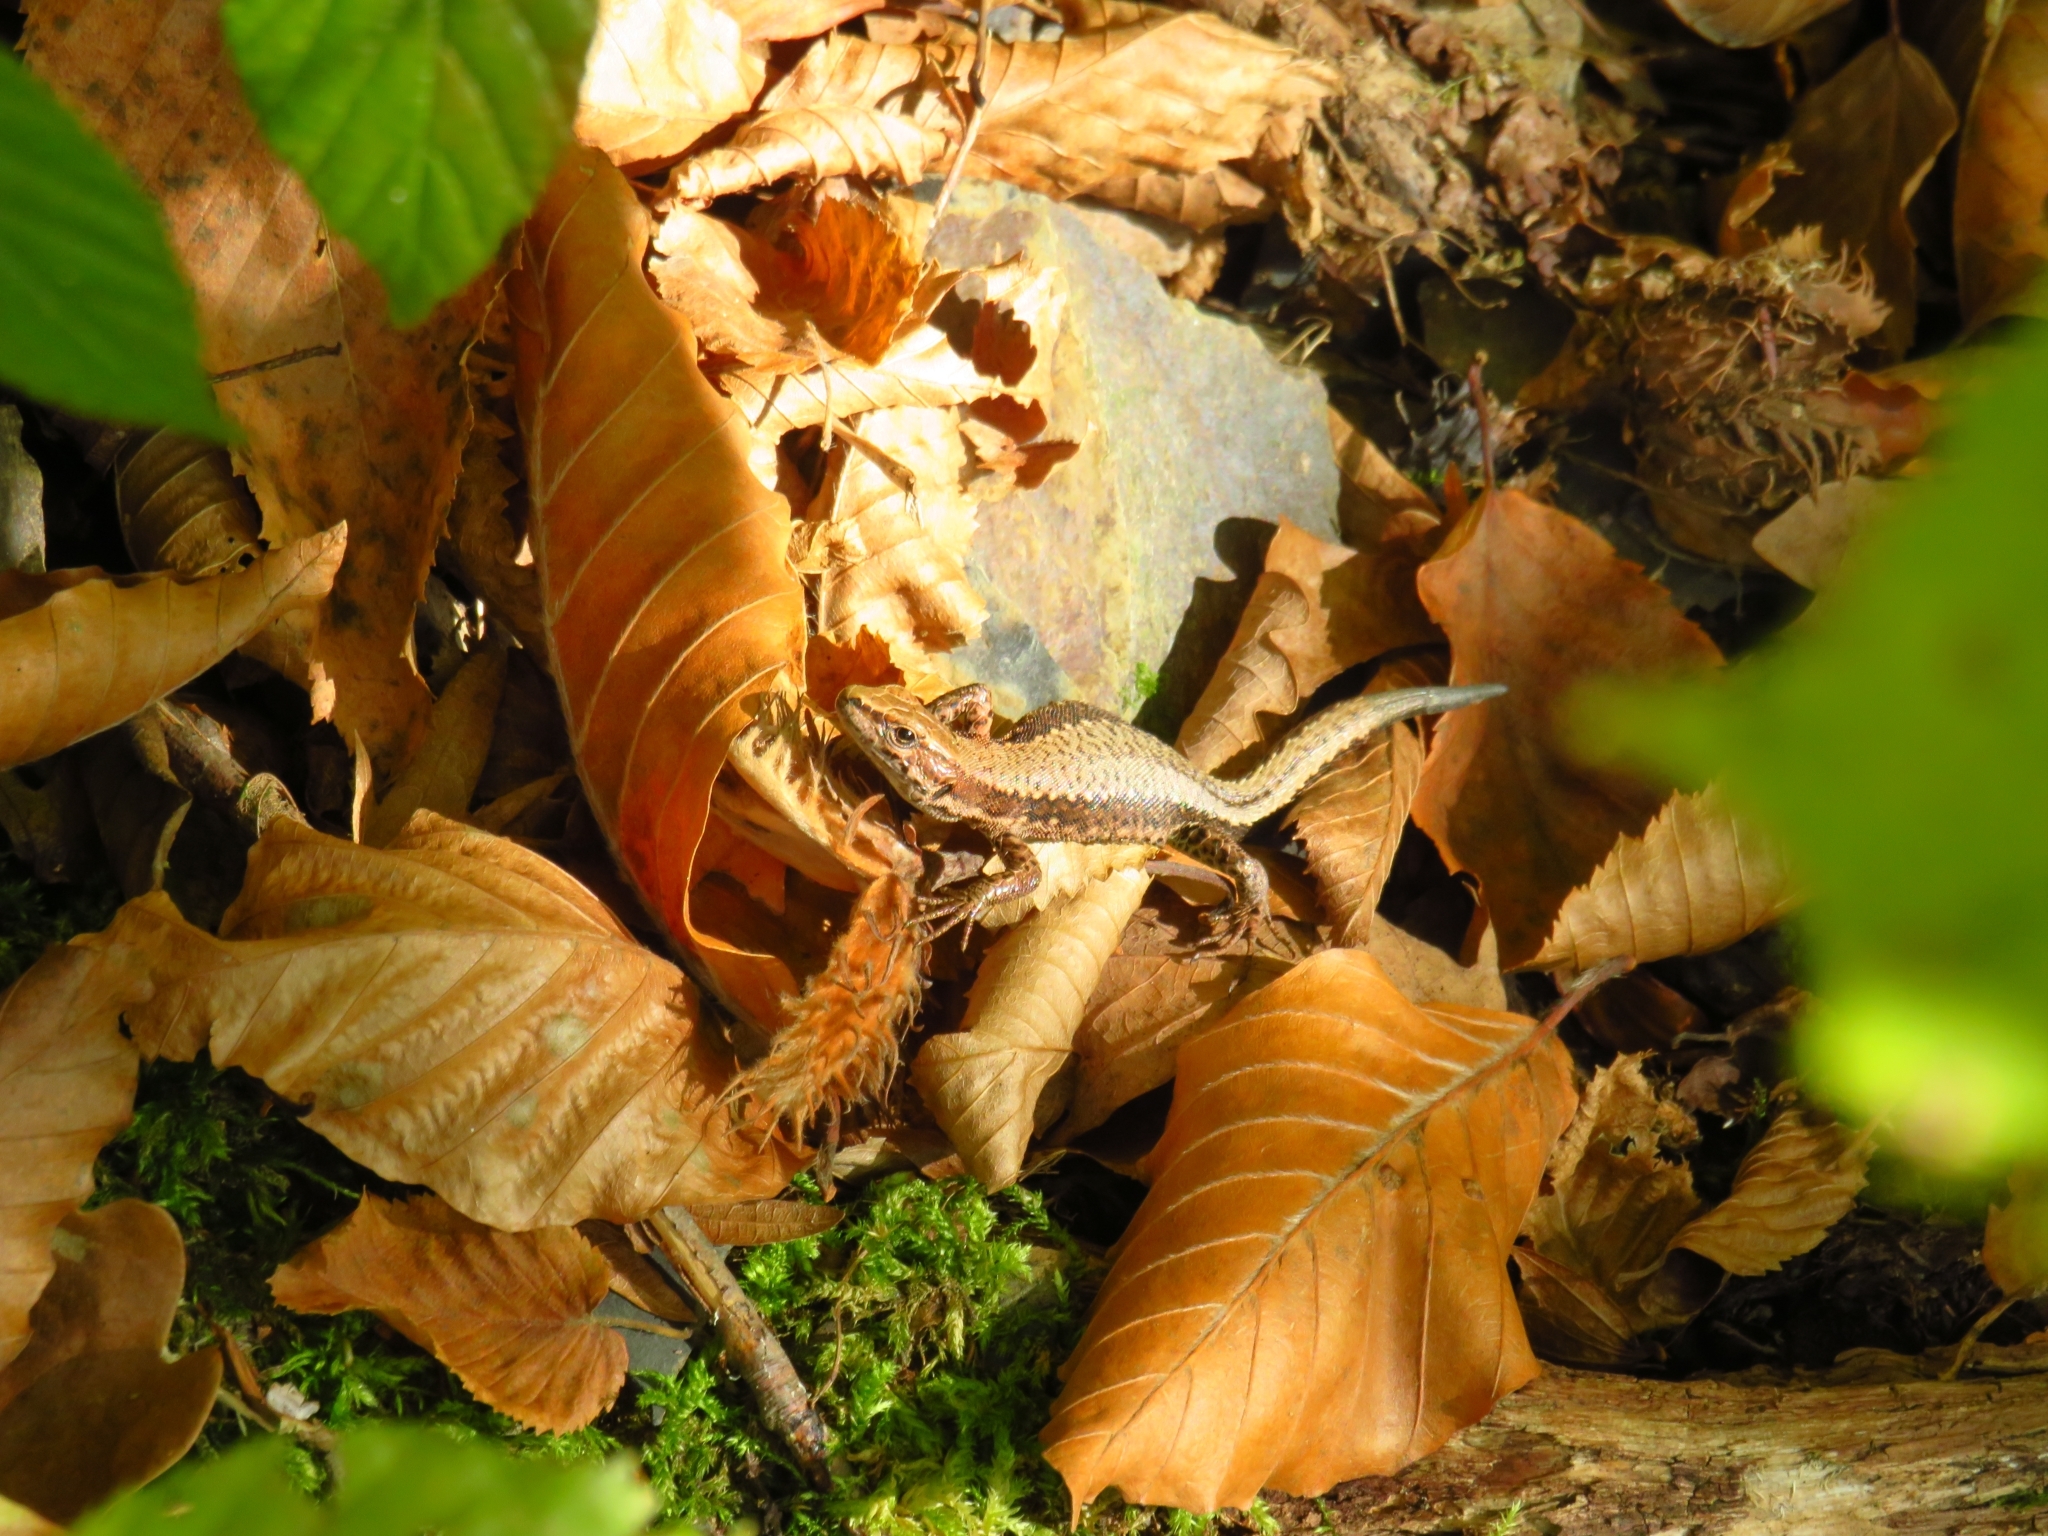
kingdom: Animalia
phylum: Chordata
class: Squamata
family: Lacertidae
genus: Darevskia
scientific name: Darevskia derjugini
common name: Derjugin's lizard
